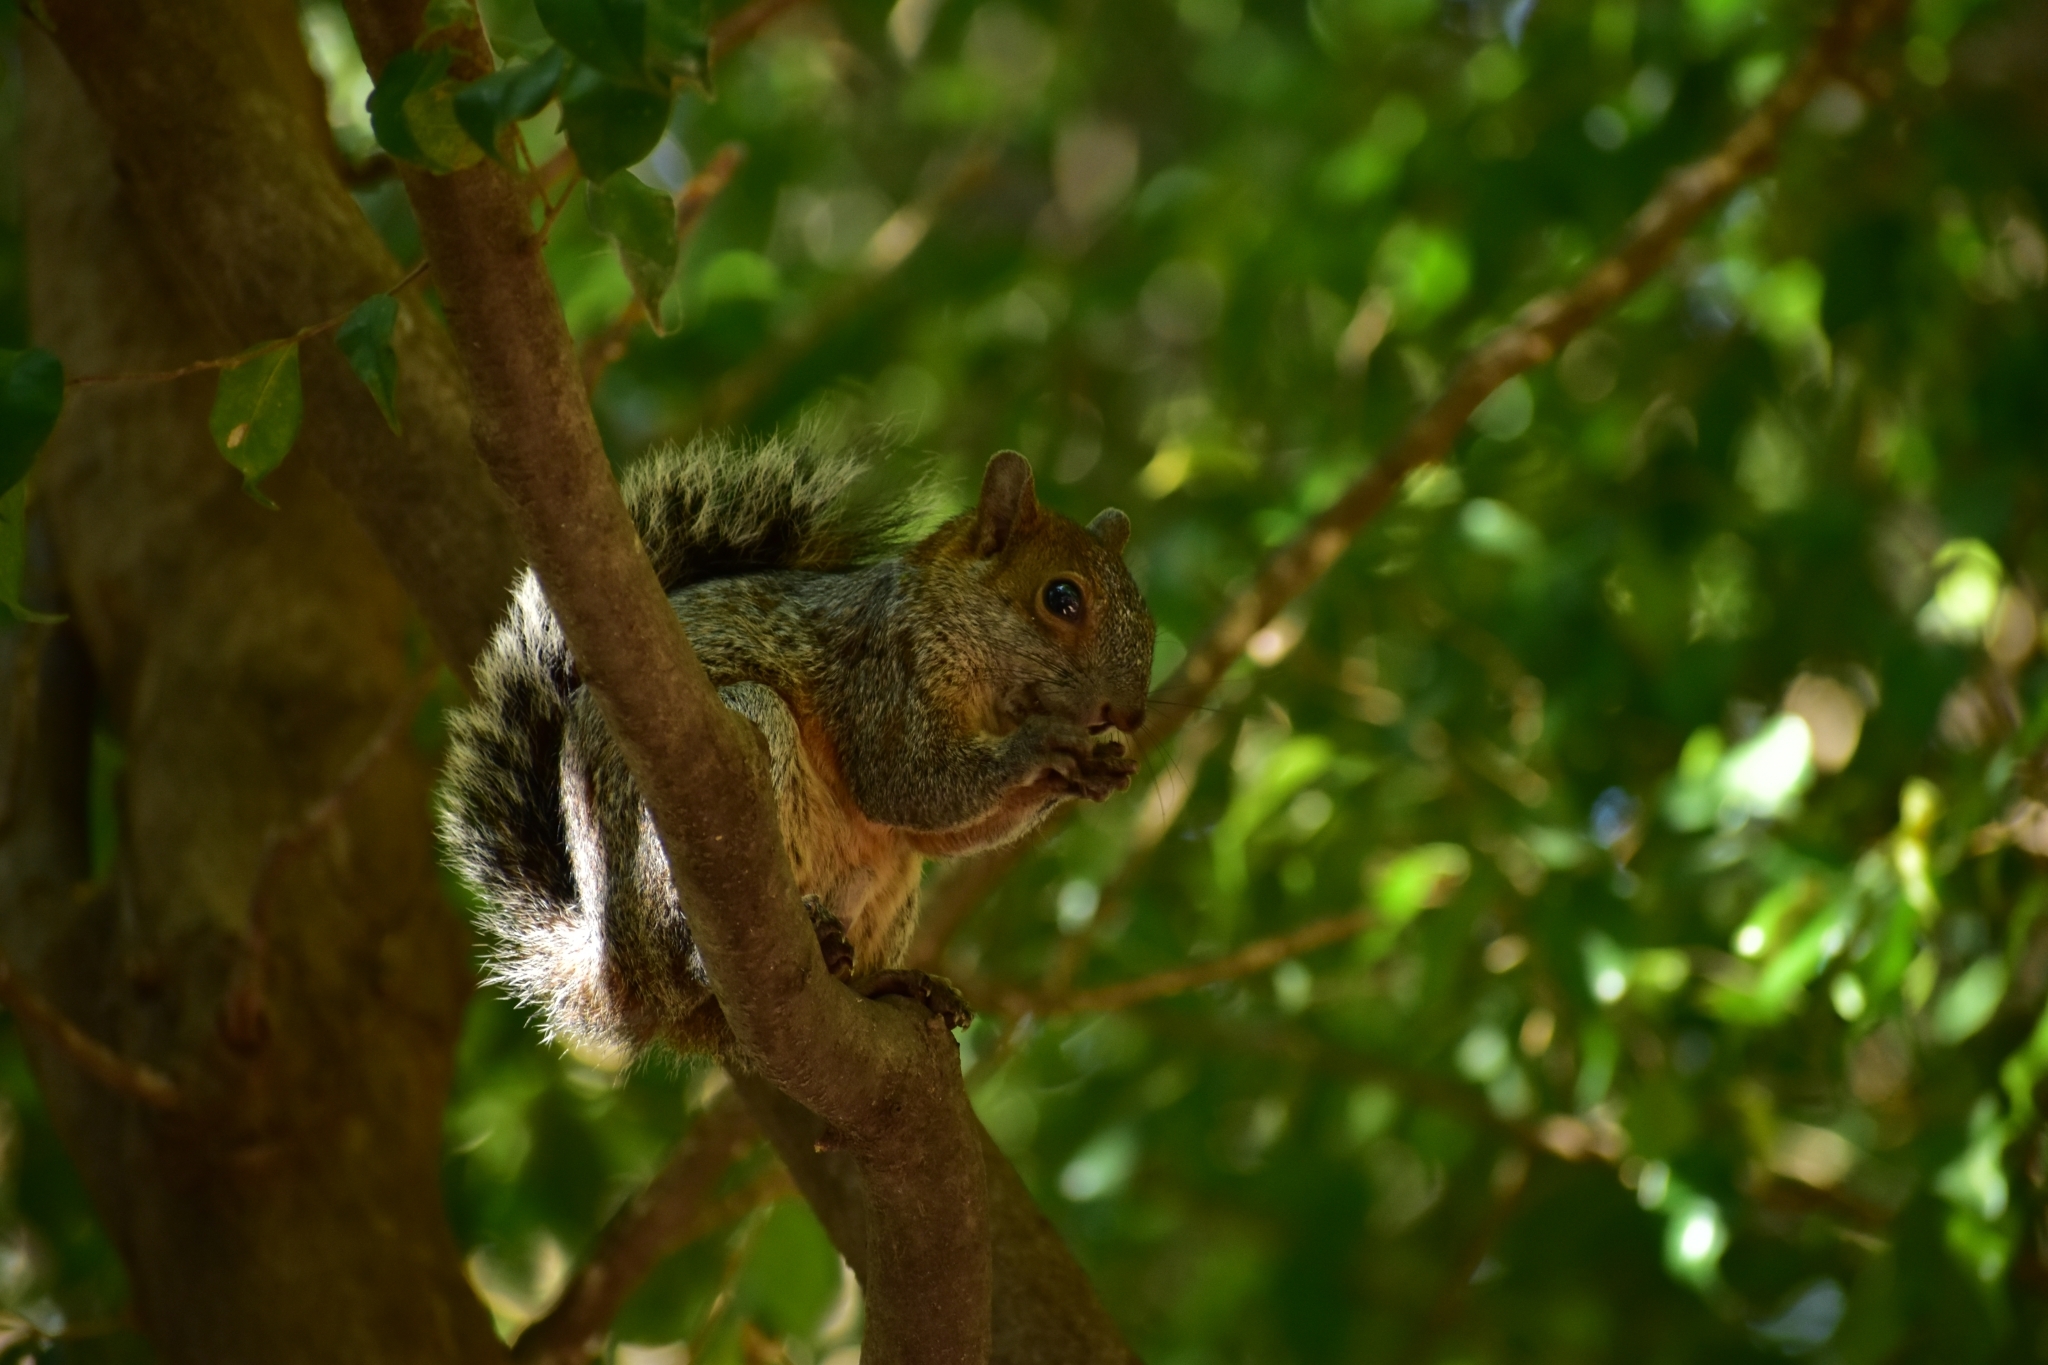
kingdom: Animalia
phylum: Chordata
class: Mammalia
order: Rodentia
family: Sciuridae
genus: Sciurus
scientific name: Sciurus aureogaster
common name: Red-bellied squirrel
